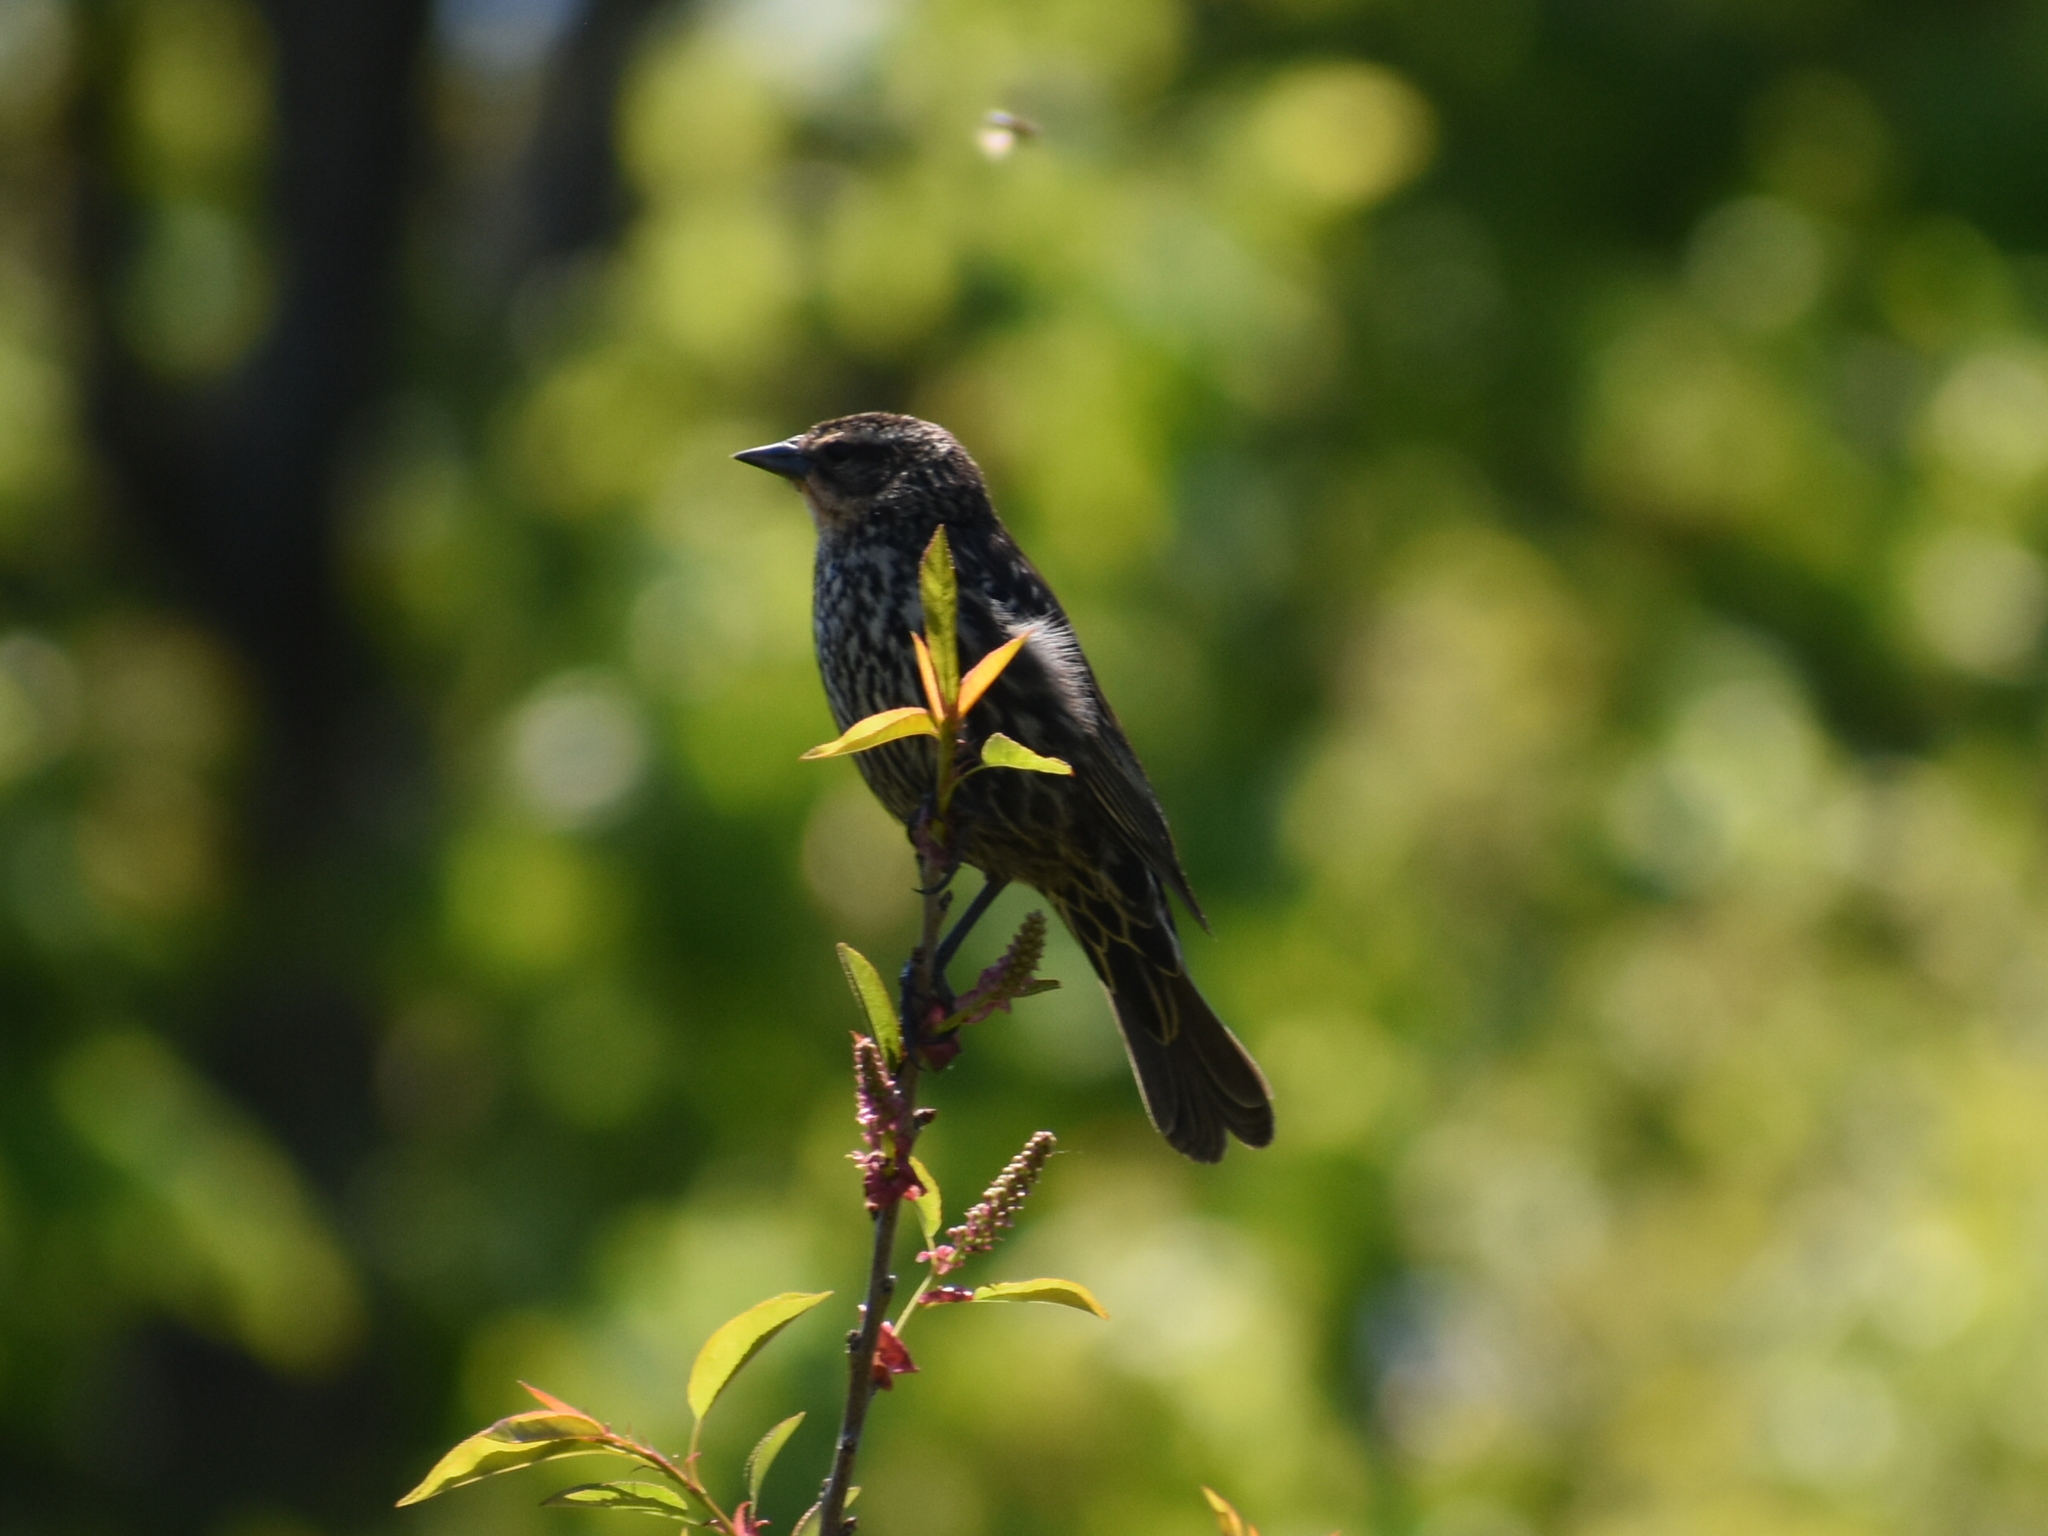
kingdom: Animalia
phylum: Chordata
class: Aves
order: Passeriformes
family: Icteridae
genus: Agelaius
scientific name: Agelaius phoeniceus
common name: Red-winged blackbird
